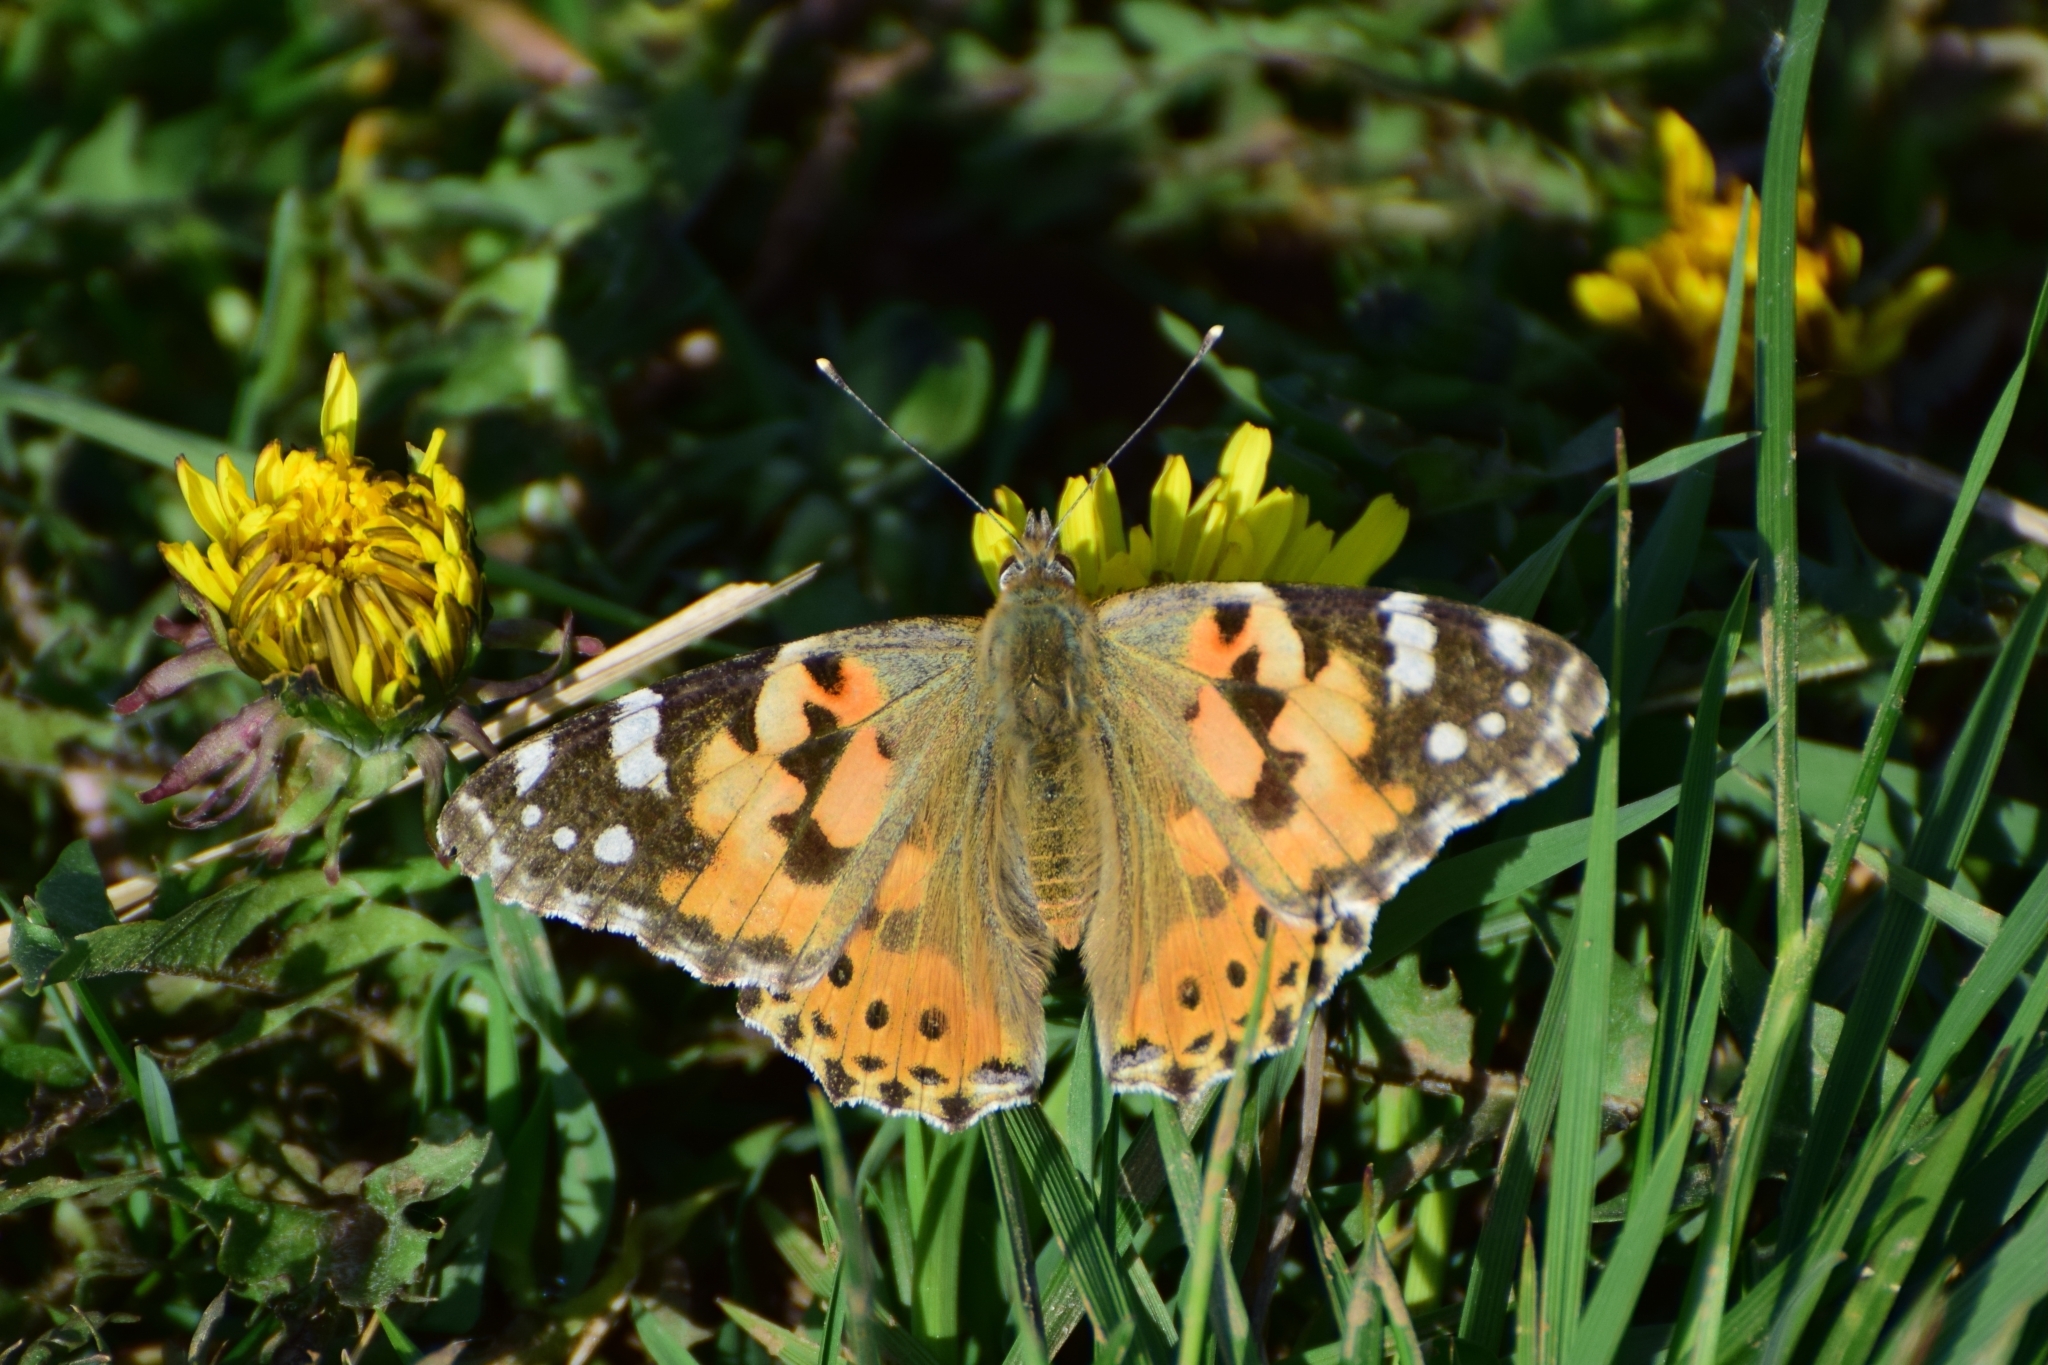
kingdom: Animalia
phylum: Arthropoda
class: Insecta
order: Lepidoptera
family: Nymphalidae
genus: Vanessa
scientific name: Vanessa cardui
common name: Painted lady
